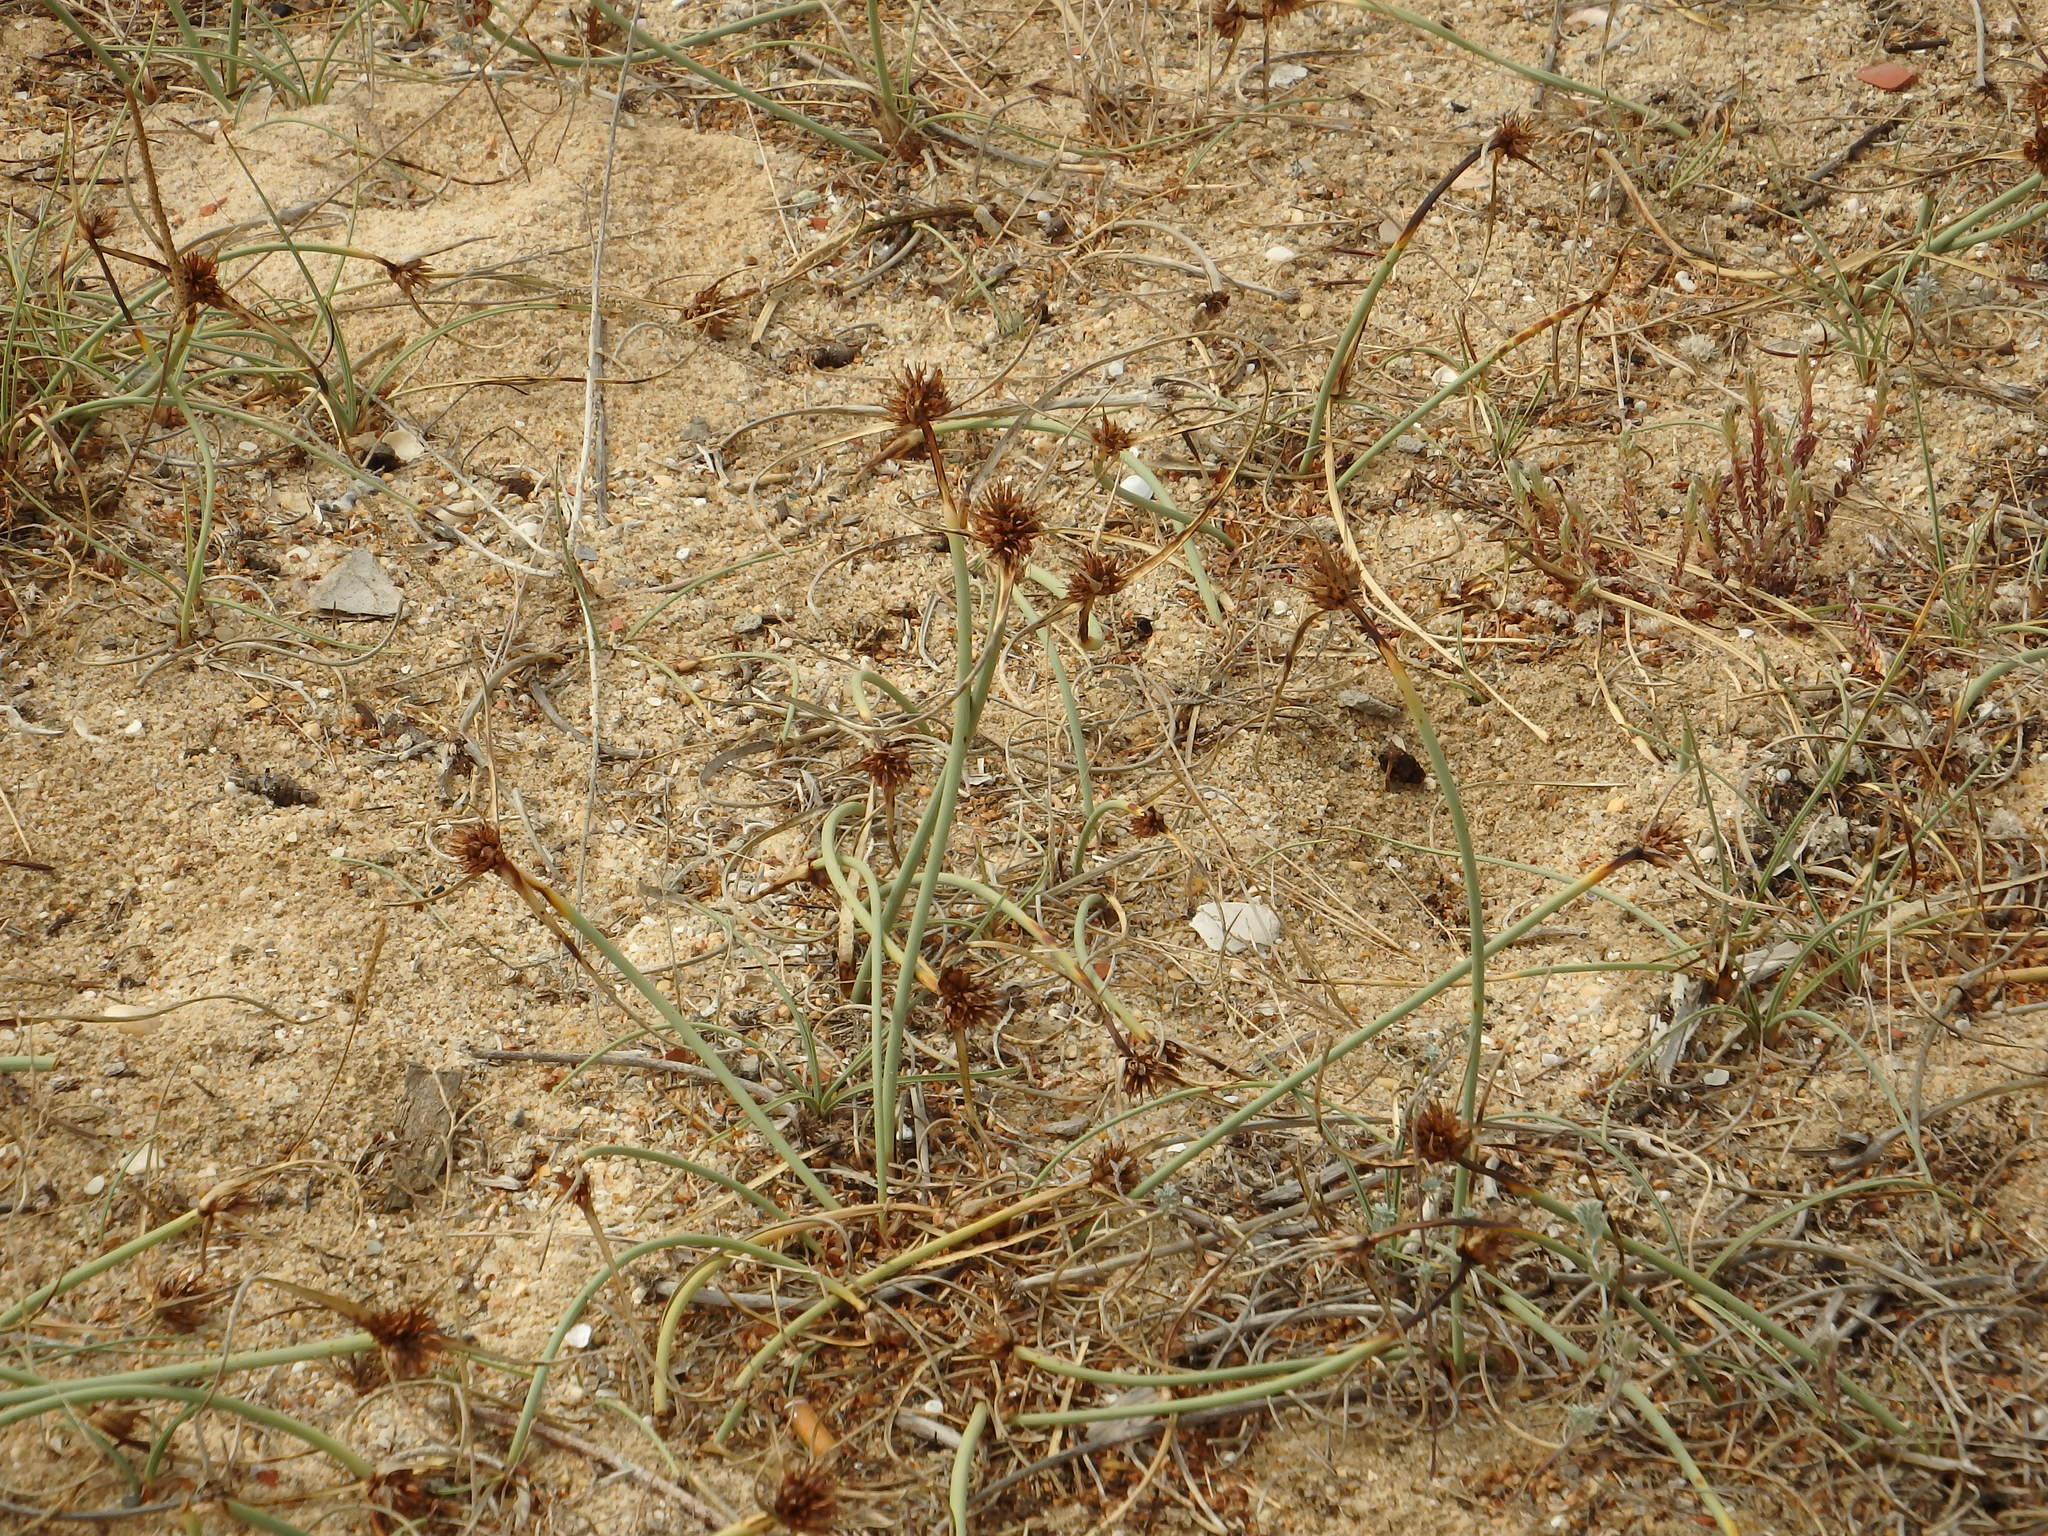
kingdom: Plantae
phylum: Tracheophyta
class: Liliopsida
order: Poales
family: Cyperaceae
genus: Cyperus
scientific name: Cyperus capitatus
